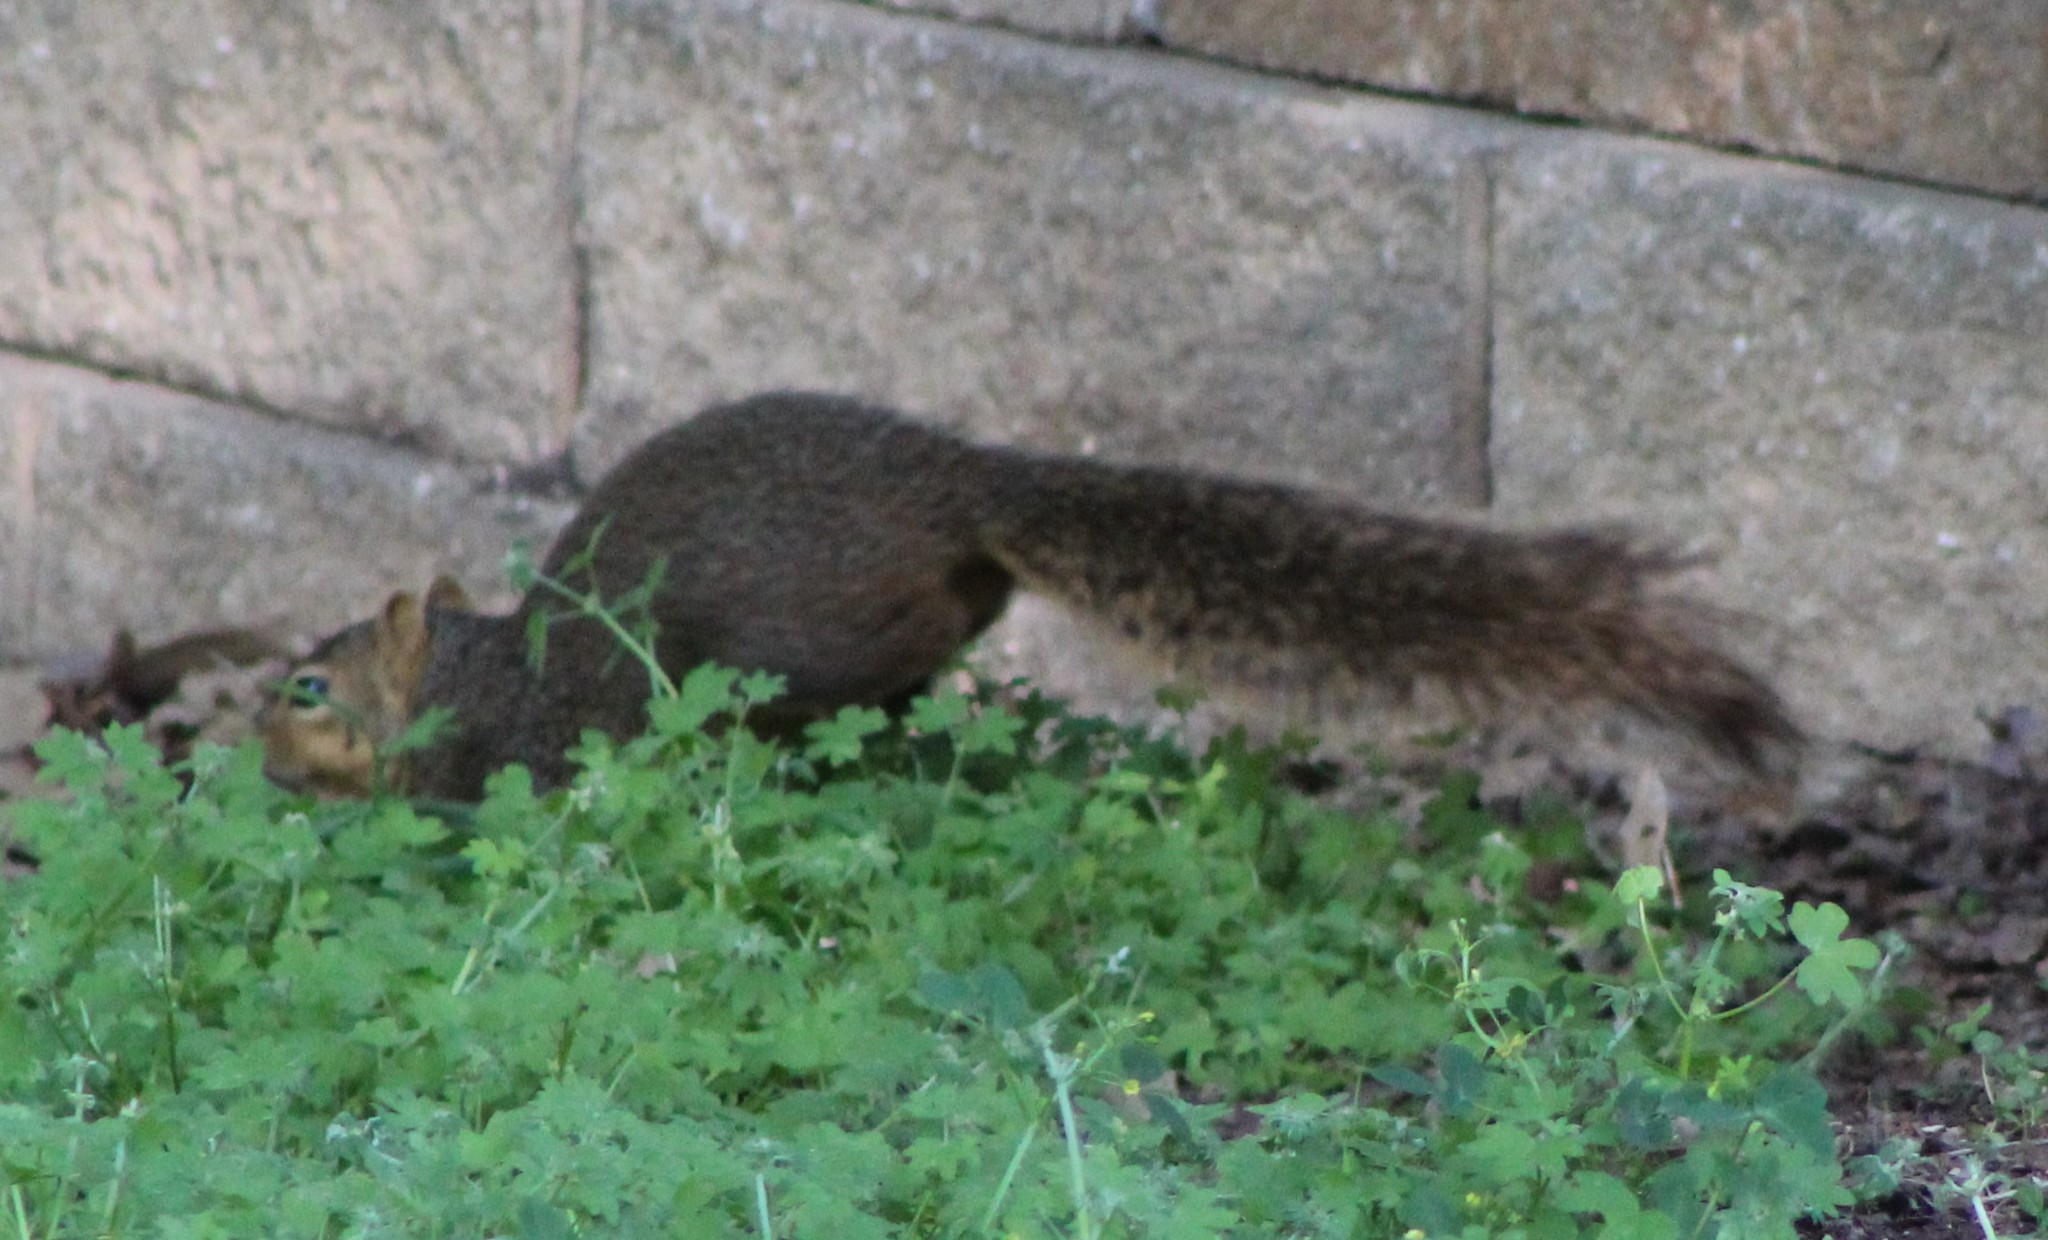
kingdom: Animalia
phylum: Chordata
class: Mammalia
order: Rodentia
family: Sciuridae
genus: Sciurus
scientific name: Sciurus niger
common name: Fox squirrel
